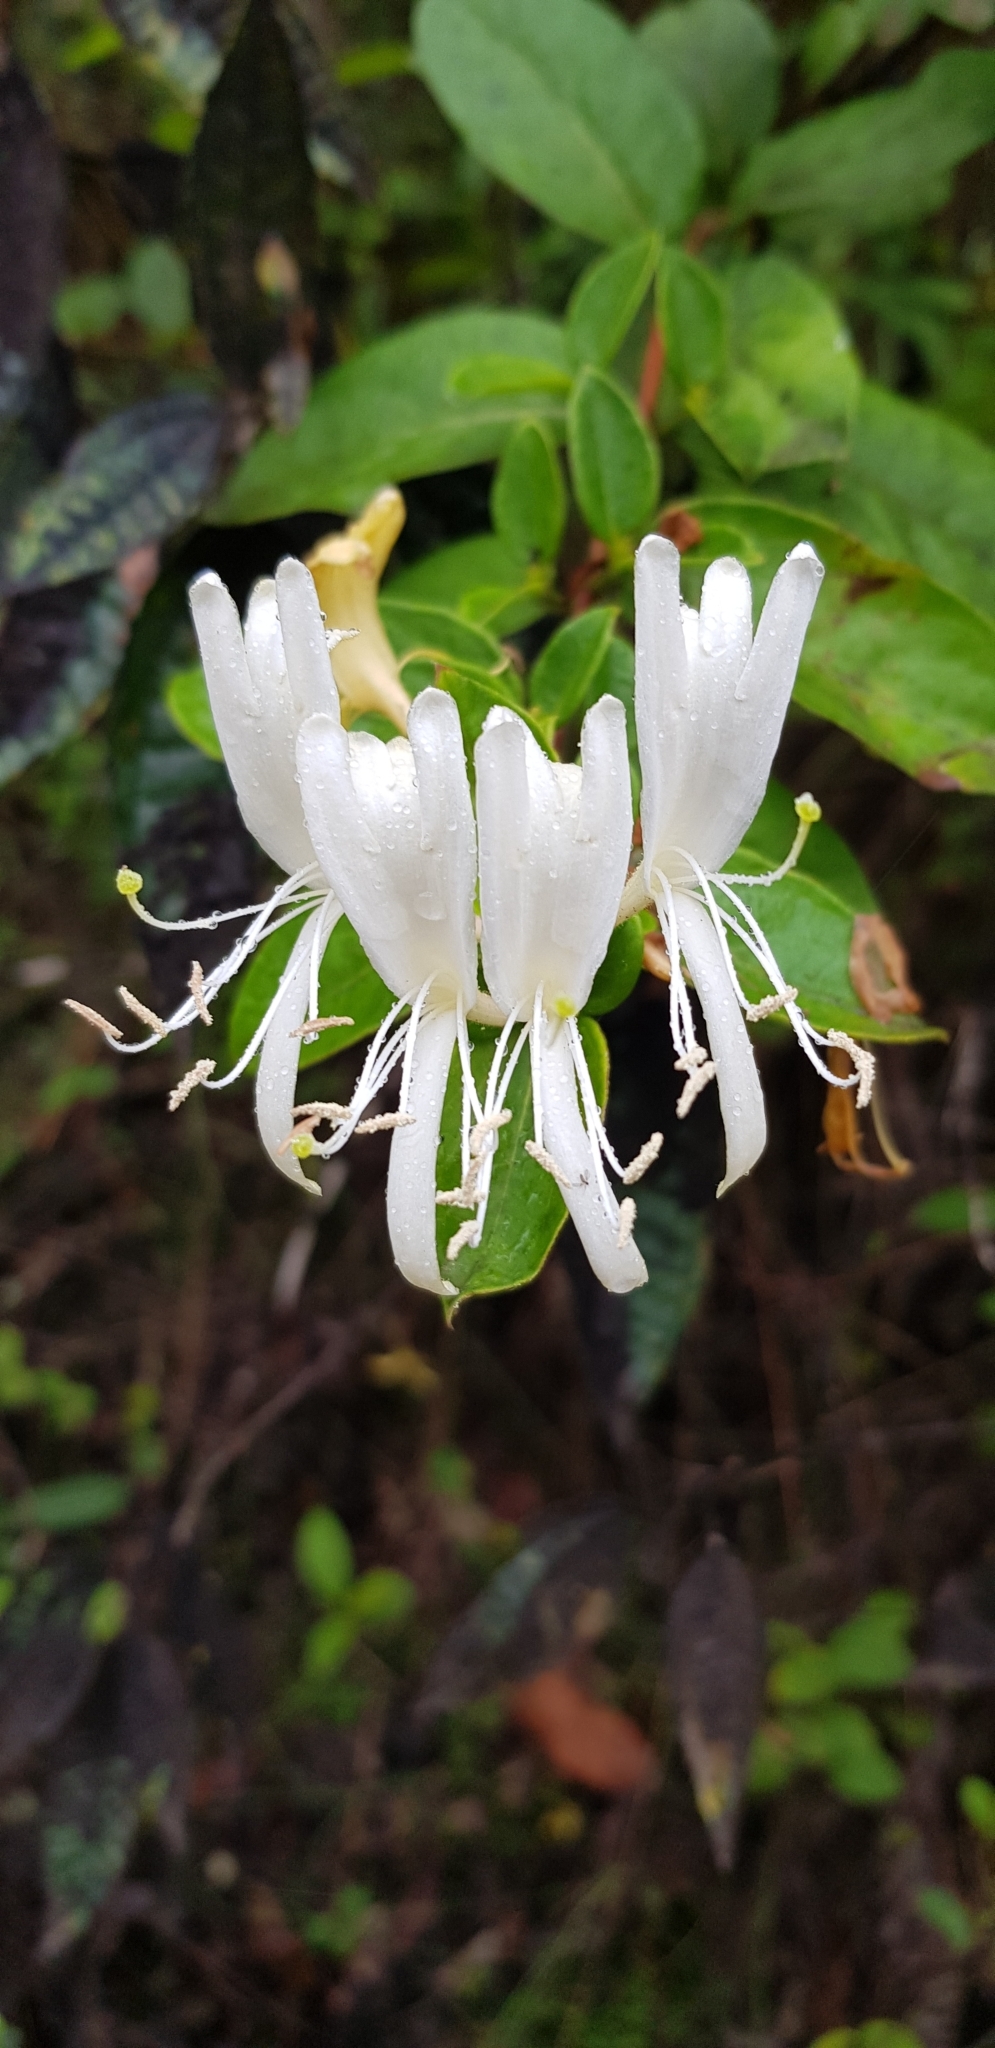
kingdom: Plantae
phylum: Tracheophyta
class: Magnoliopsida
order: Dipsacales
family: Caprifoliaceae
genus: Lonicera
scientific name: Lonicera japonica
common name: Japanese honeysuckle
